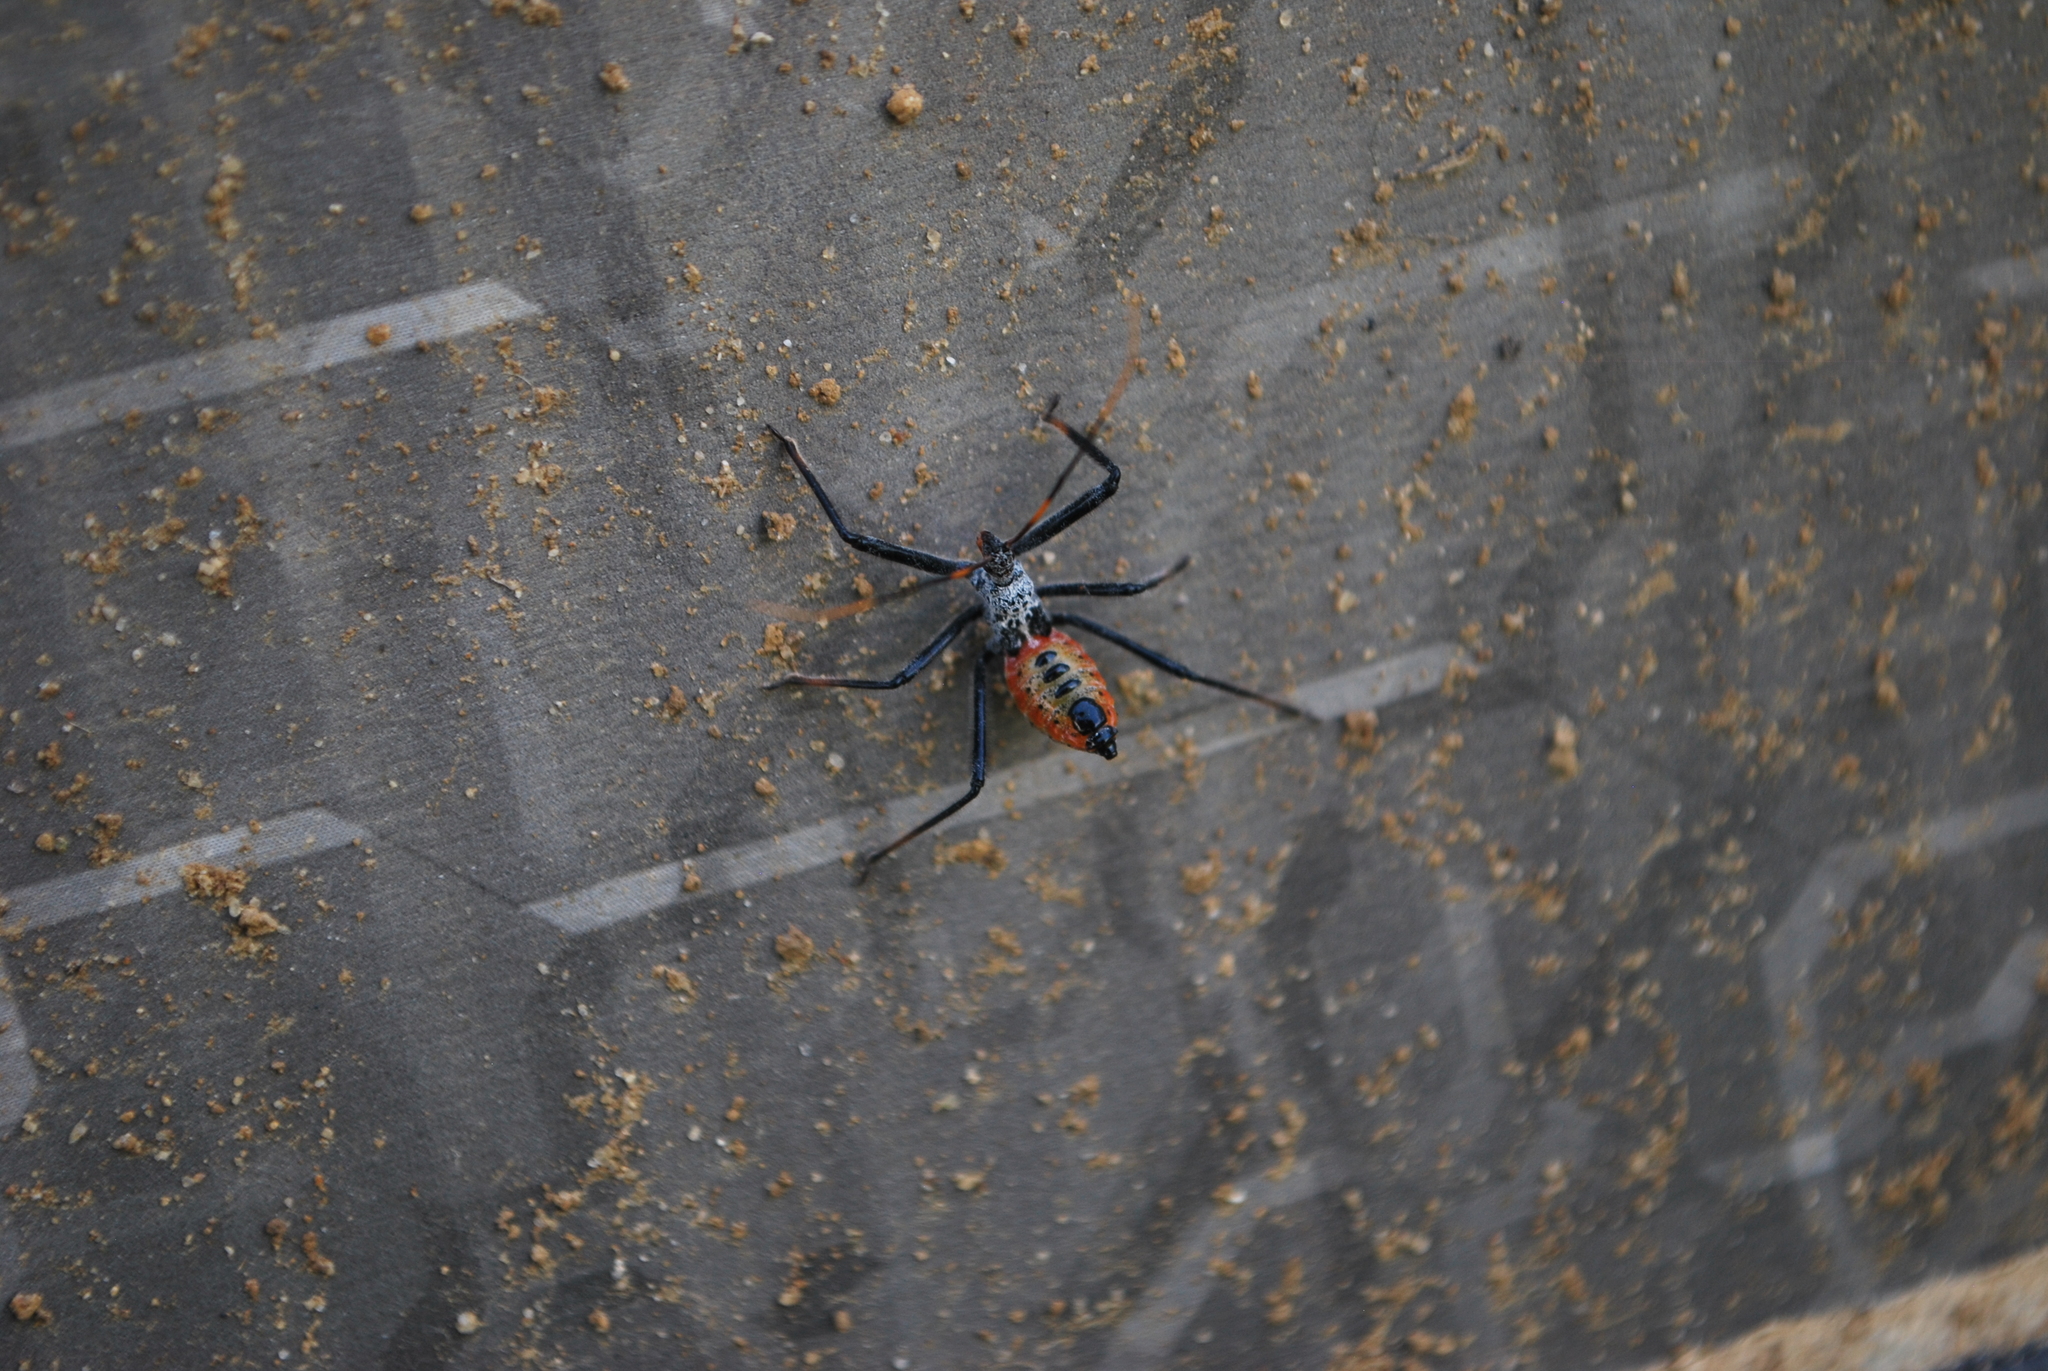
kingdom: Animalia
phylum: Arthropoda
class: Insecta
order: Hemiptera
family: Reduviidae
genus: Arilus
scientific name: Arilus cristatus
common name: North american wheel bug
